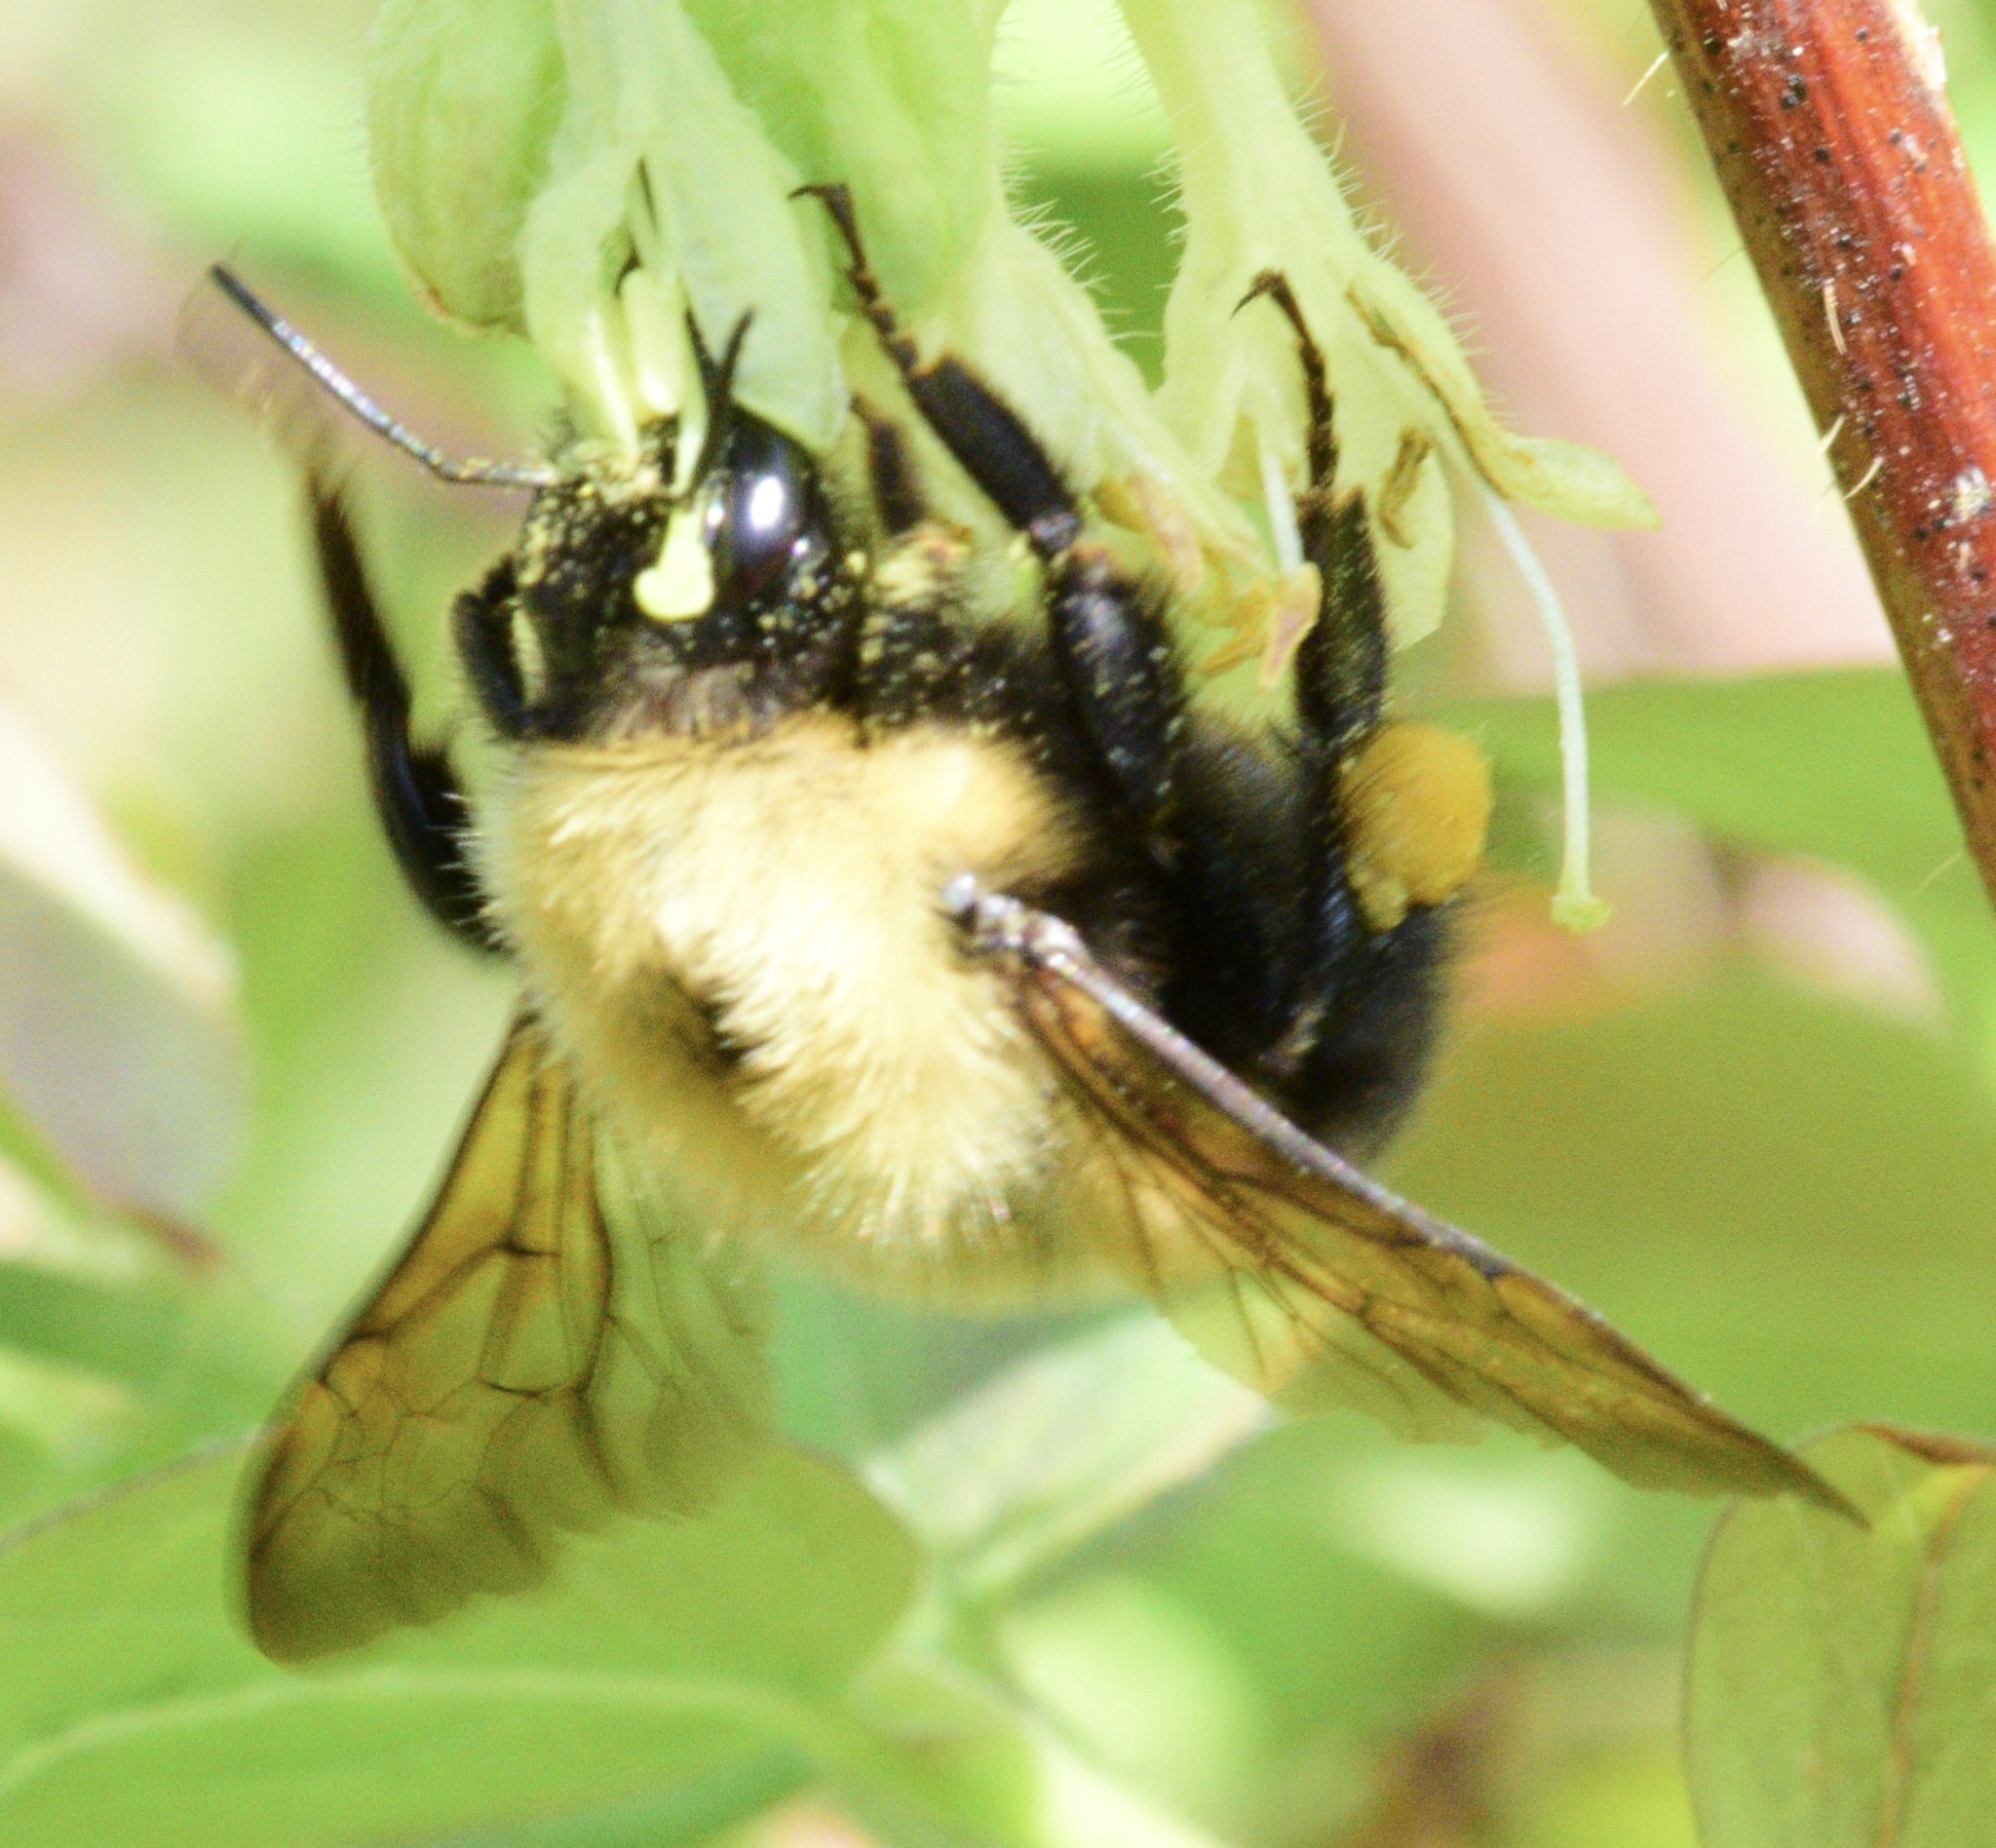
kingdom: Animalia
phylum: Arthropoda
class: Insecta
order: Hymenoptera
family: Apidae
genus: Bombus
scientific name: Bombus perplexus
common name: Confusing bumble bee
